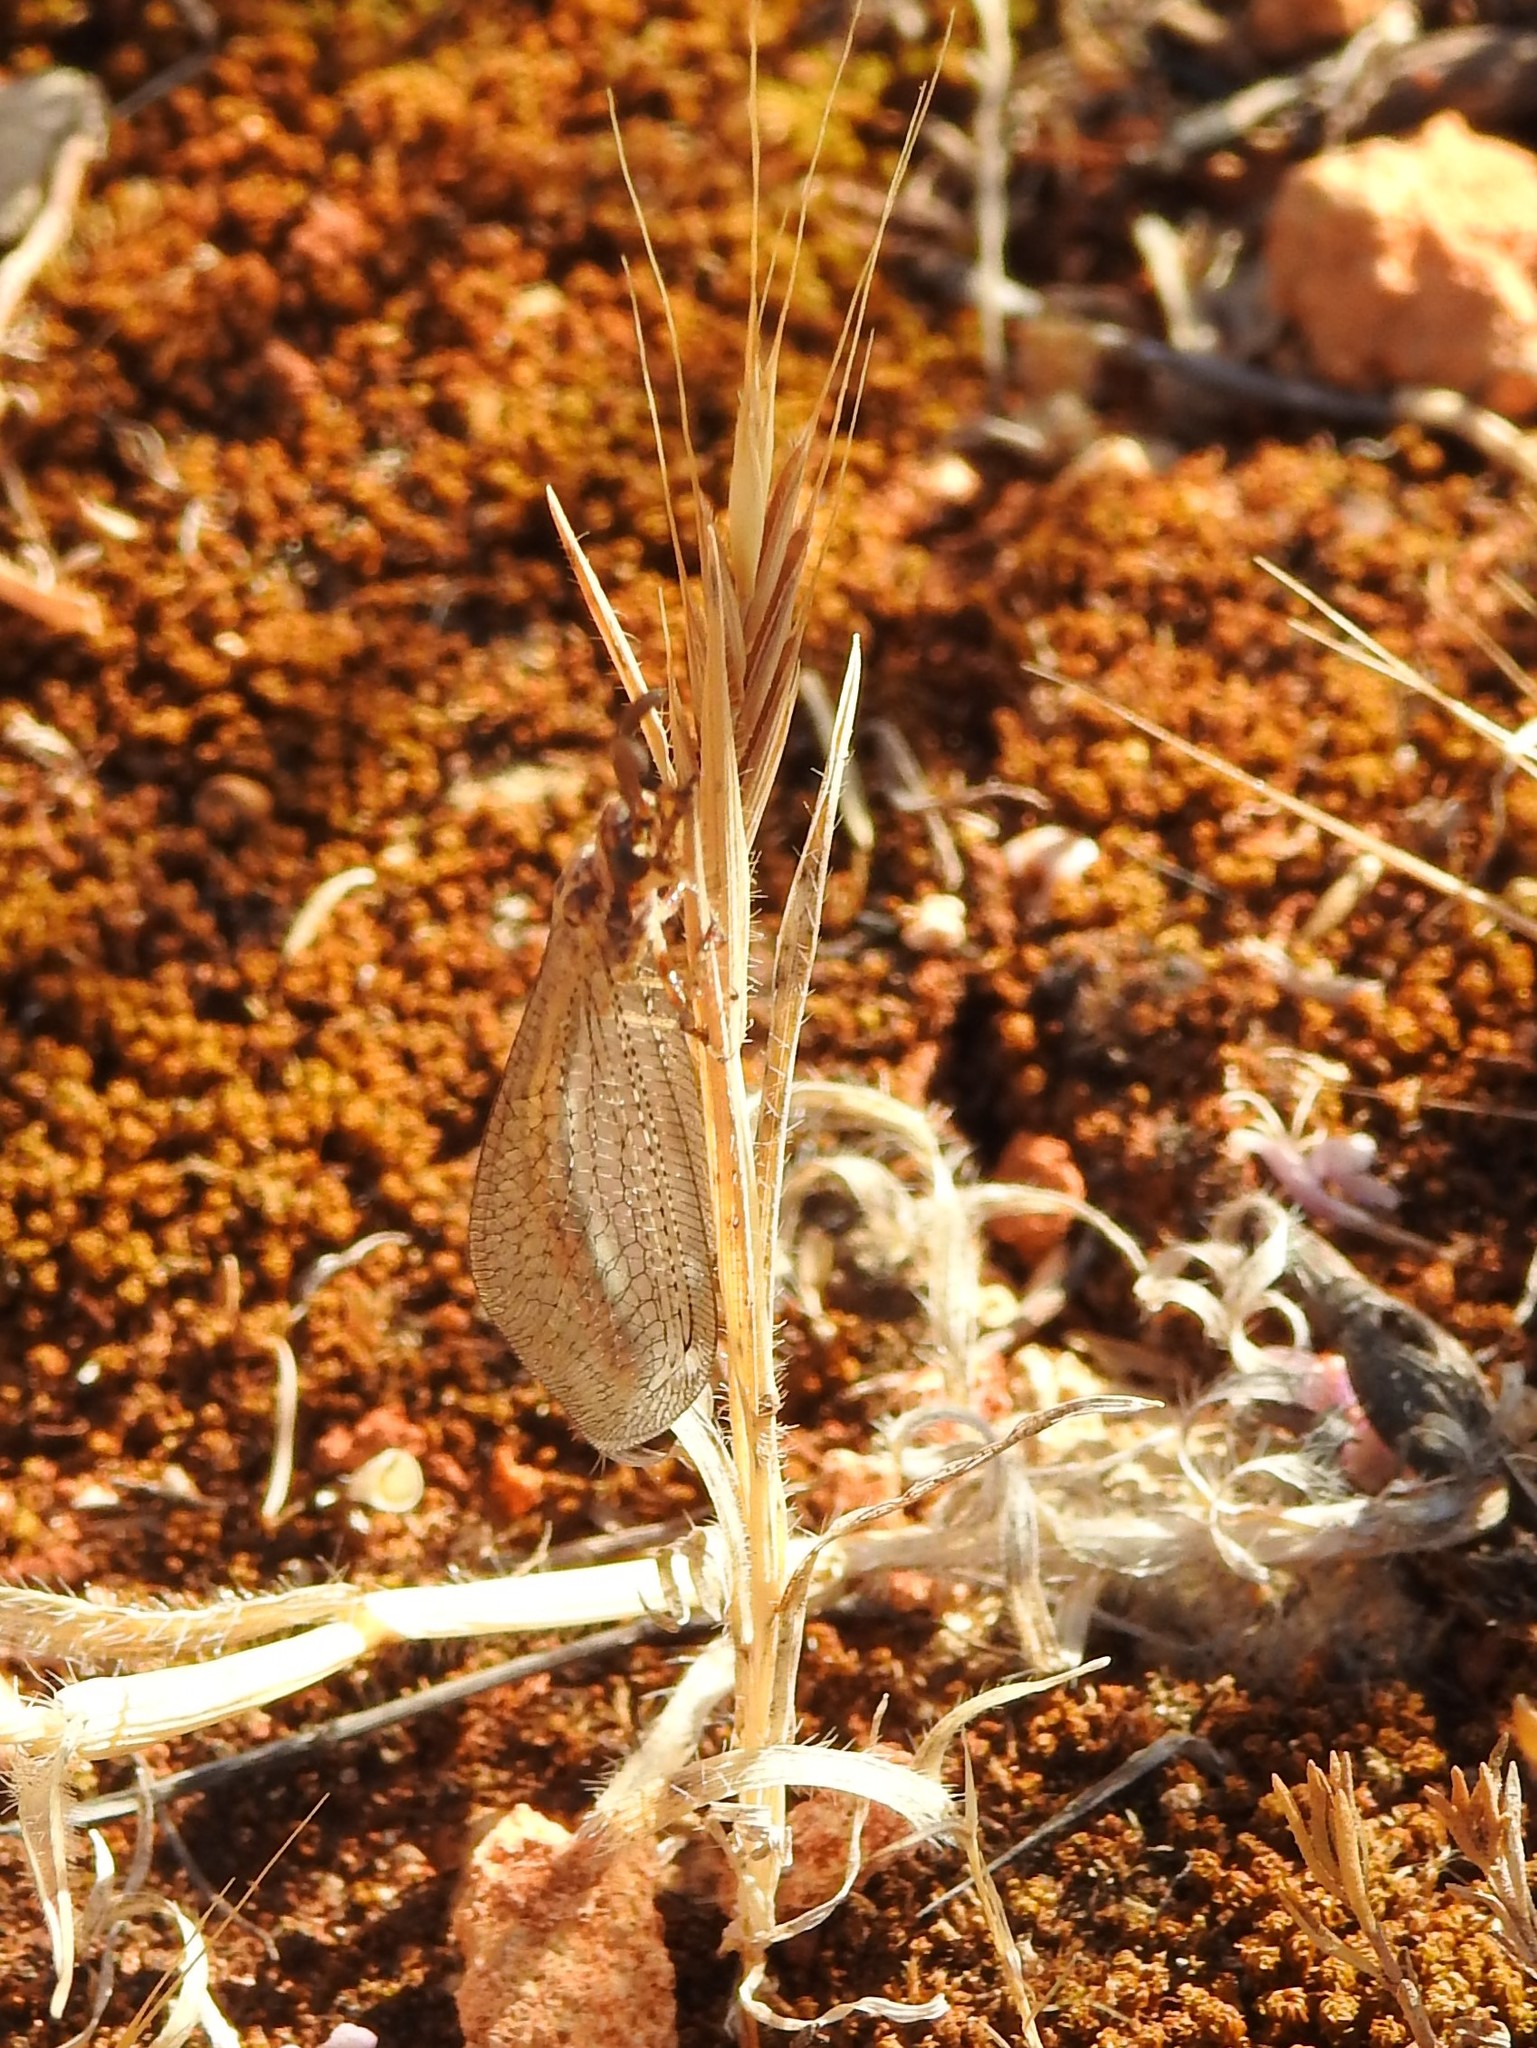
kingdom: Animalia
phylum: Arthropoda
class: Insecta
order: Neuroptera
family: Myrmeleontidae
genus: Macronemurus
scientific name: Macronemurus appendiculatus
